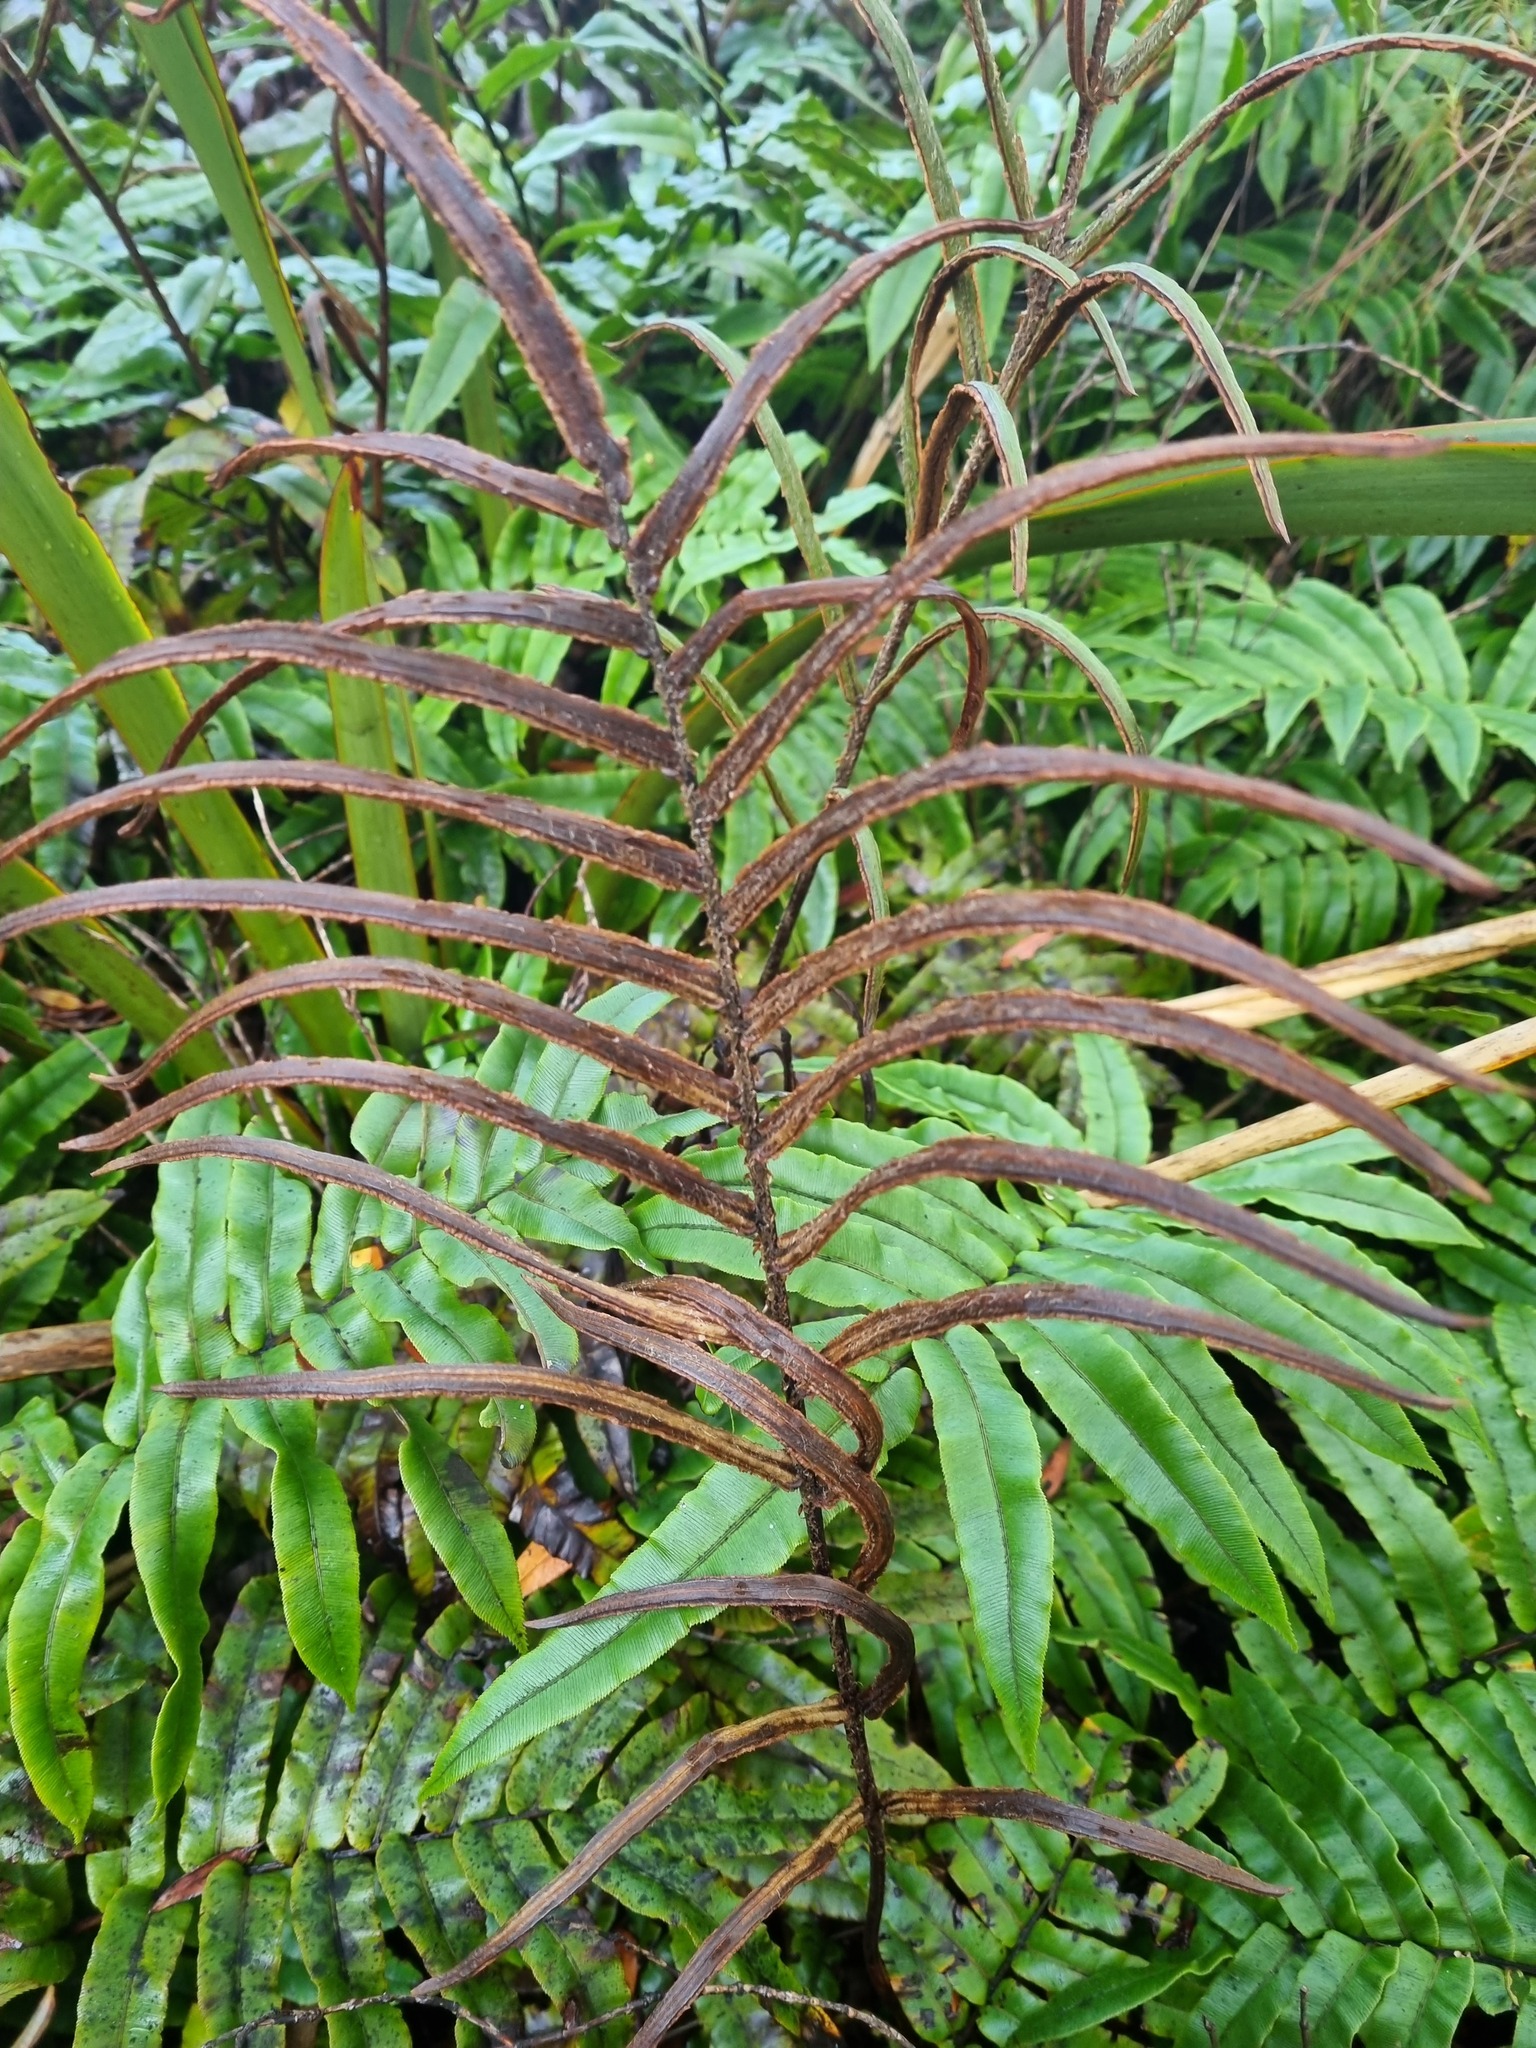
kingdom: Plantae
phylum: Tracheophyta
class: Polypodiopsida
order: Polypodiales
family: Blechnaceae
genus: Parablechnum
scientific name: Parablechnum procerum
